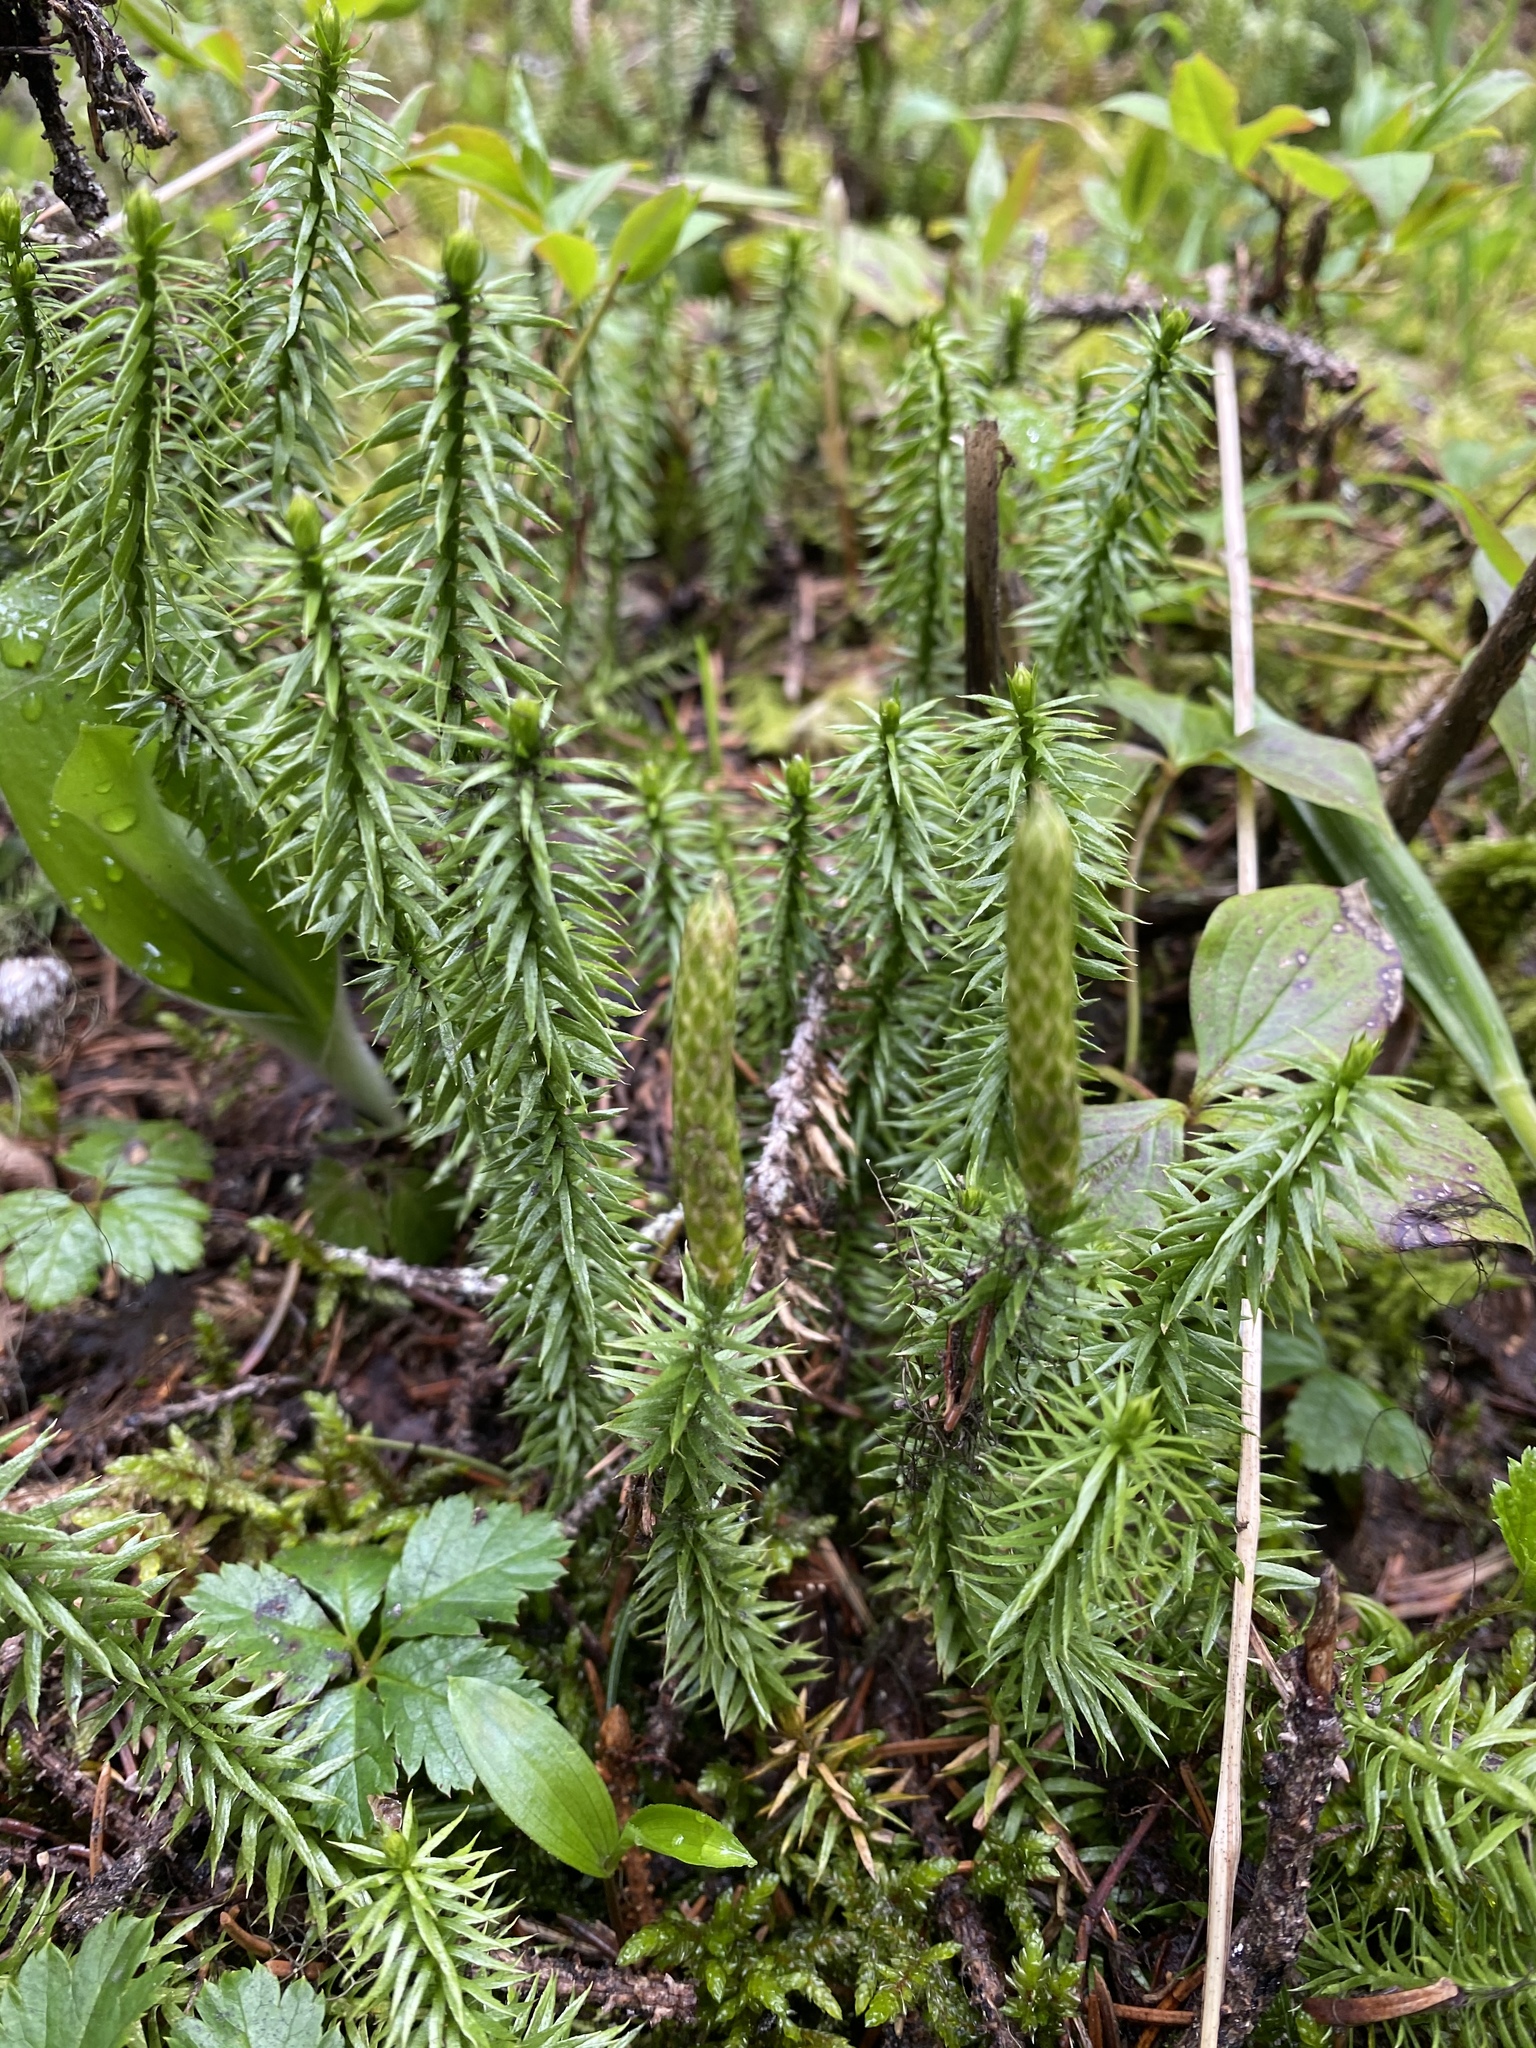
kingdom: Plantae
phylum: Tracheophyta
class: Lycopodiopsida
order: Lycopodiales
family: Lycopodiaceae
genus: Spinulum
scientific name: Spinulum annotinum
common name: Interrupted club-moss
